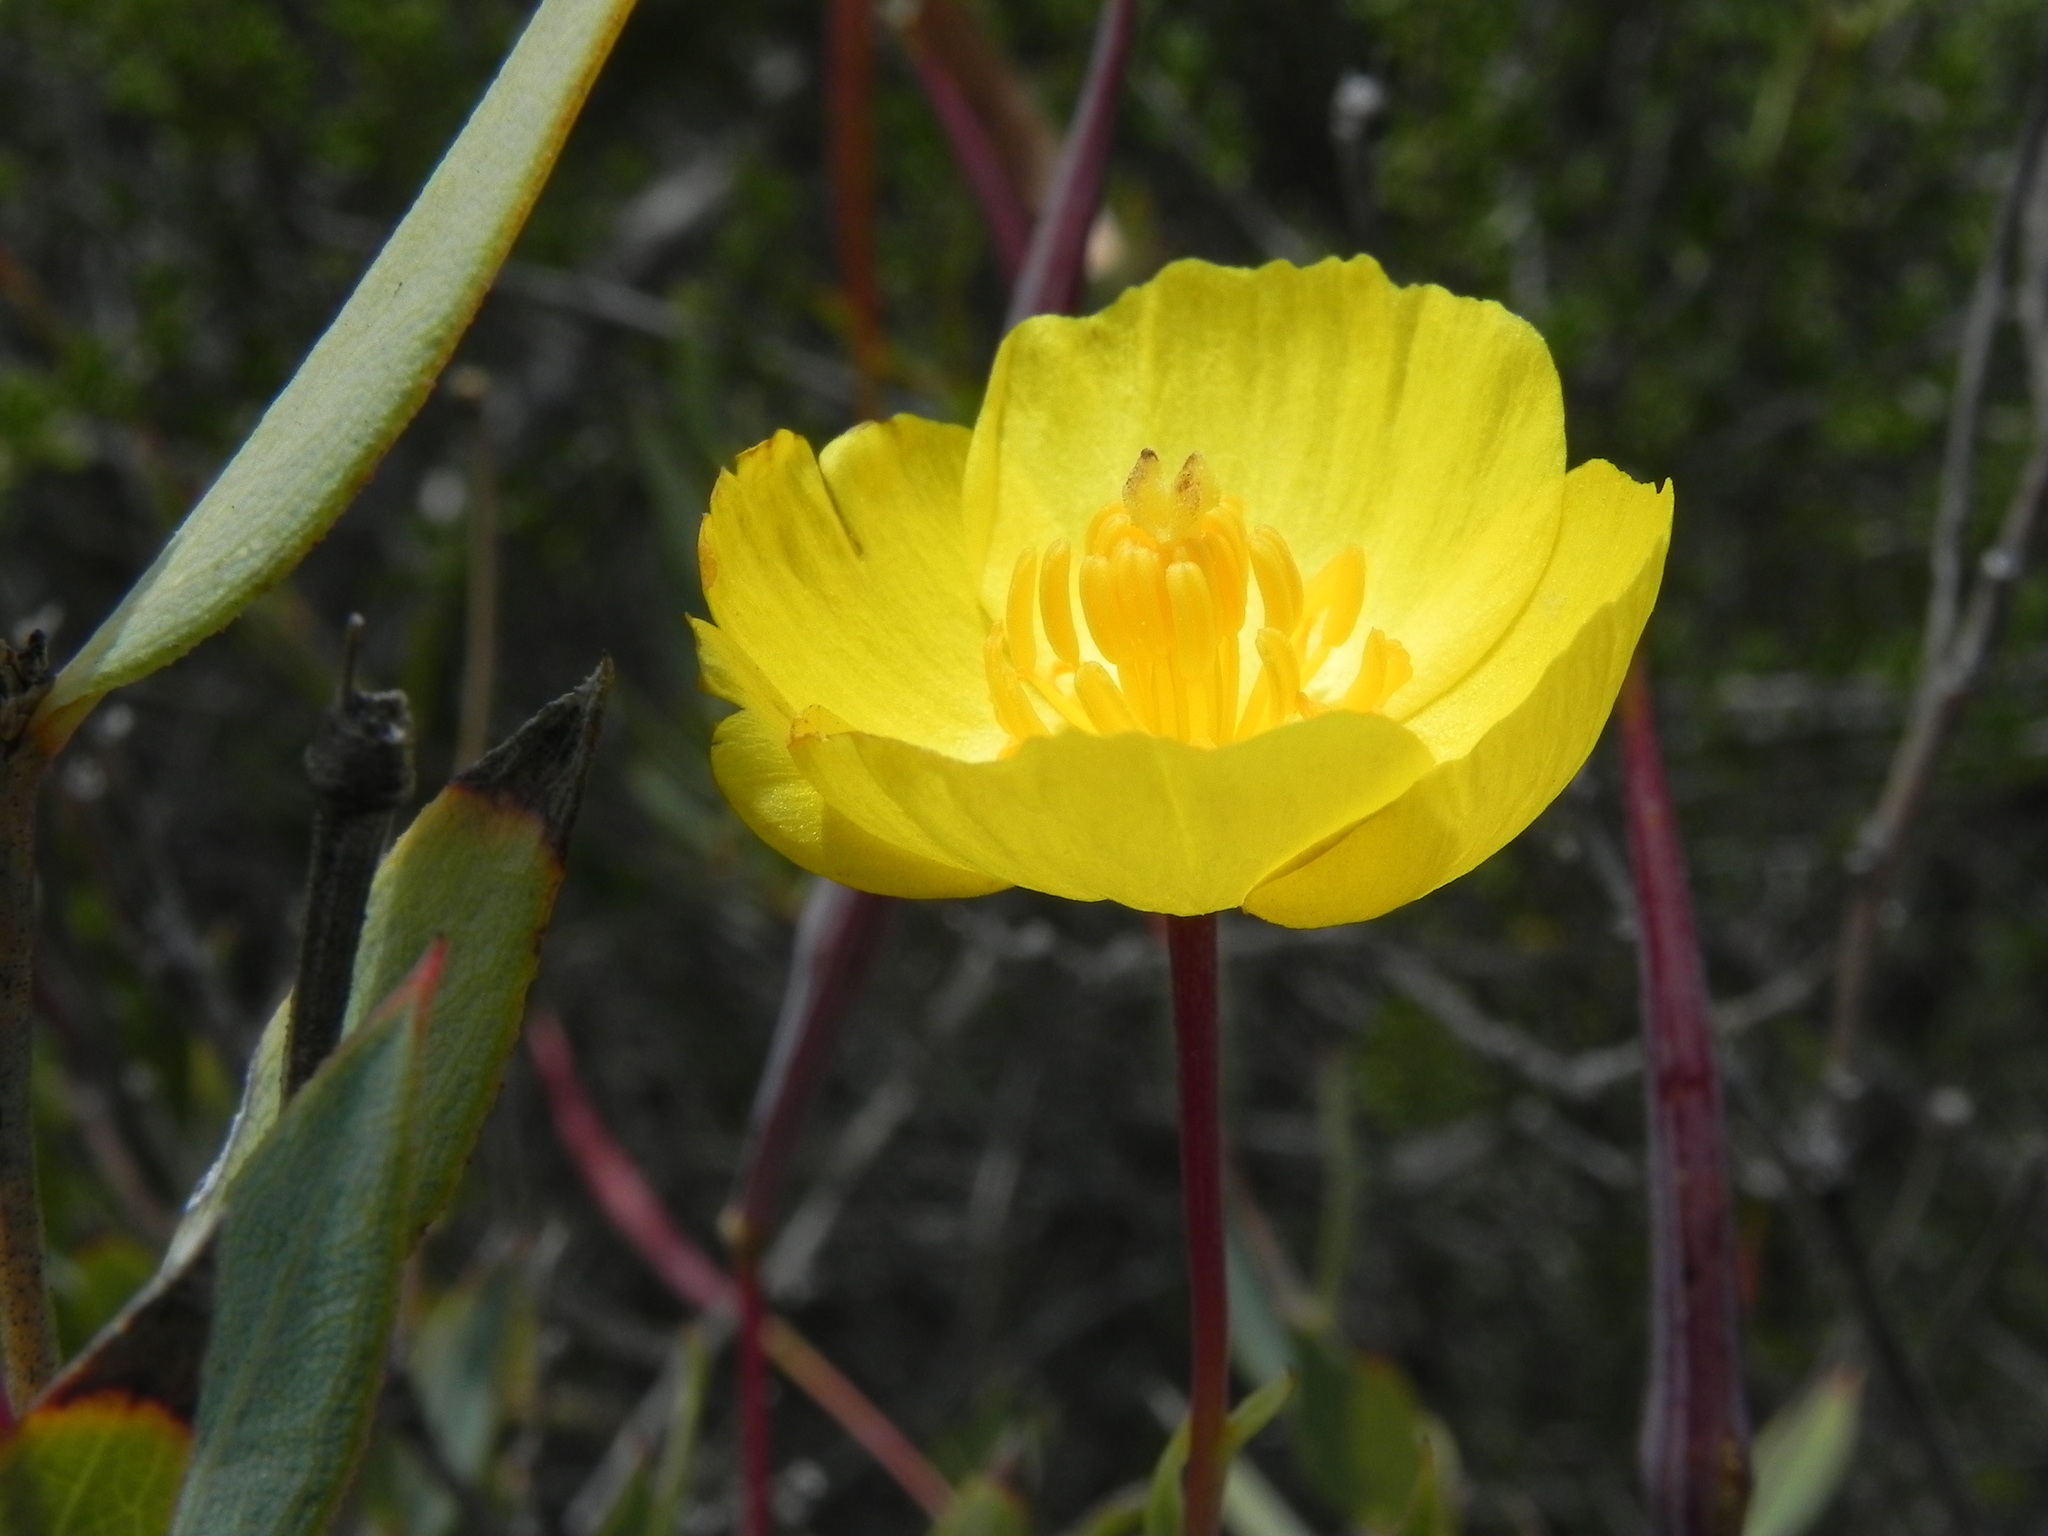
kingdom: Plantae
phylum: Tracheophyta
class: Magnoliopsida
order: Ranunculales
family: Papaveraceae
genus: Dendromecon
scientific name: Dendromecon rigida
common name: Tree poppy
